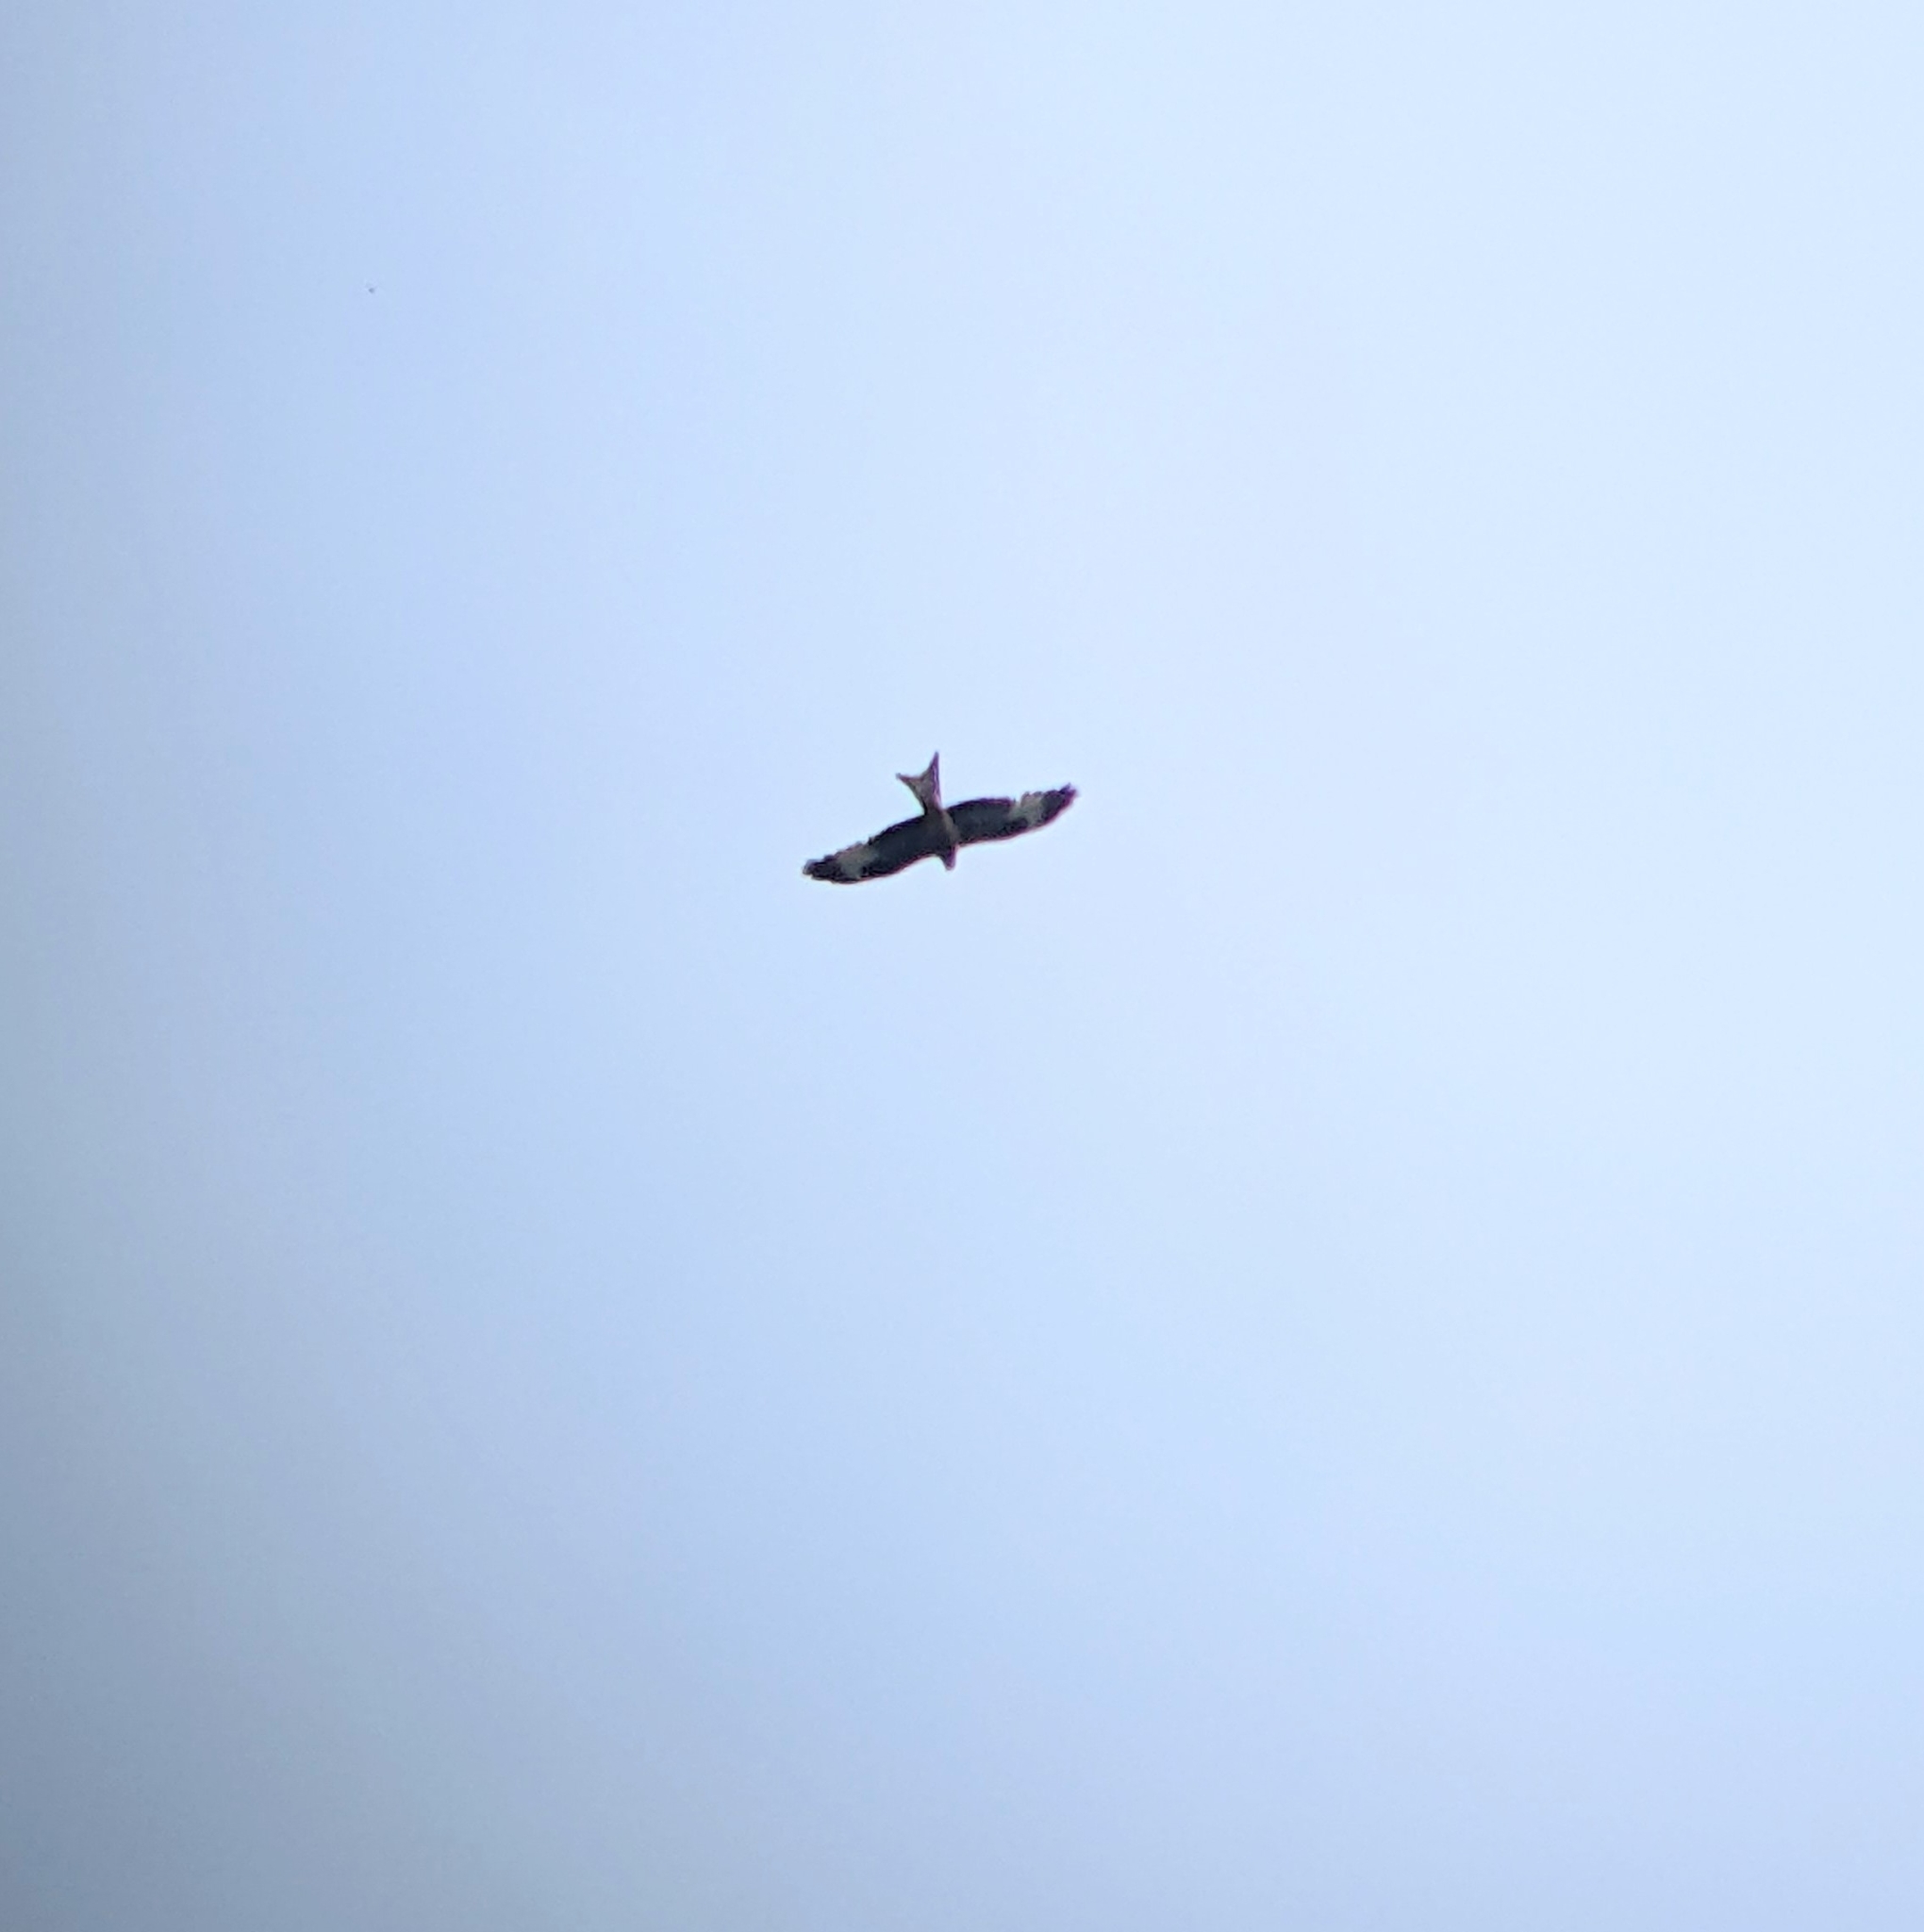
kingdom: Animalia
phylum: Chordata
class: Aves
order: Accipitriformes
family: Accipitridae
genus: Milvus
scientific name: Milvus milvus
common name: Red kite
